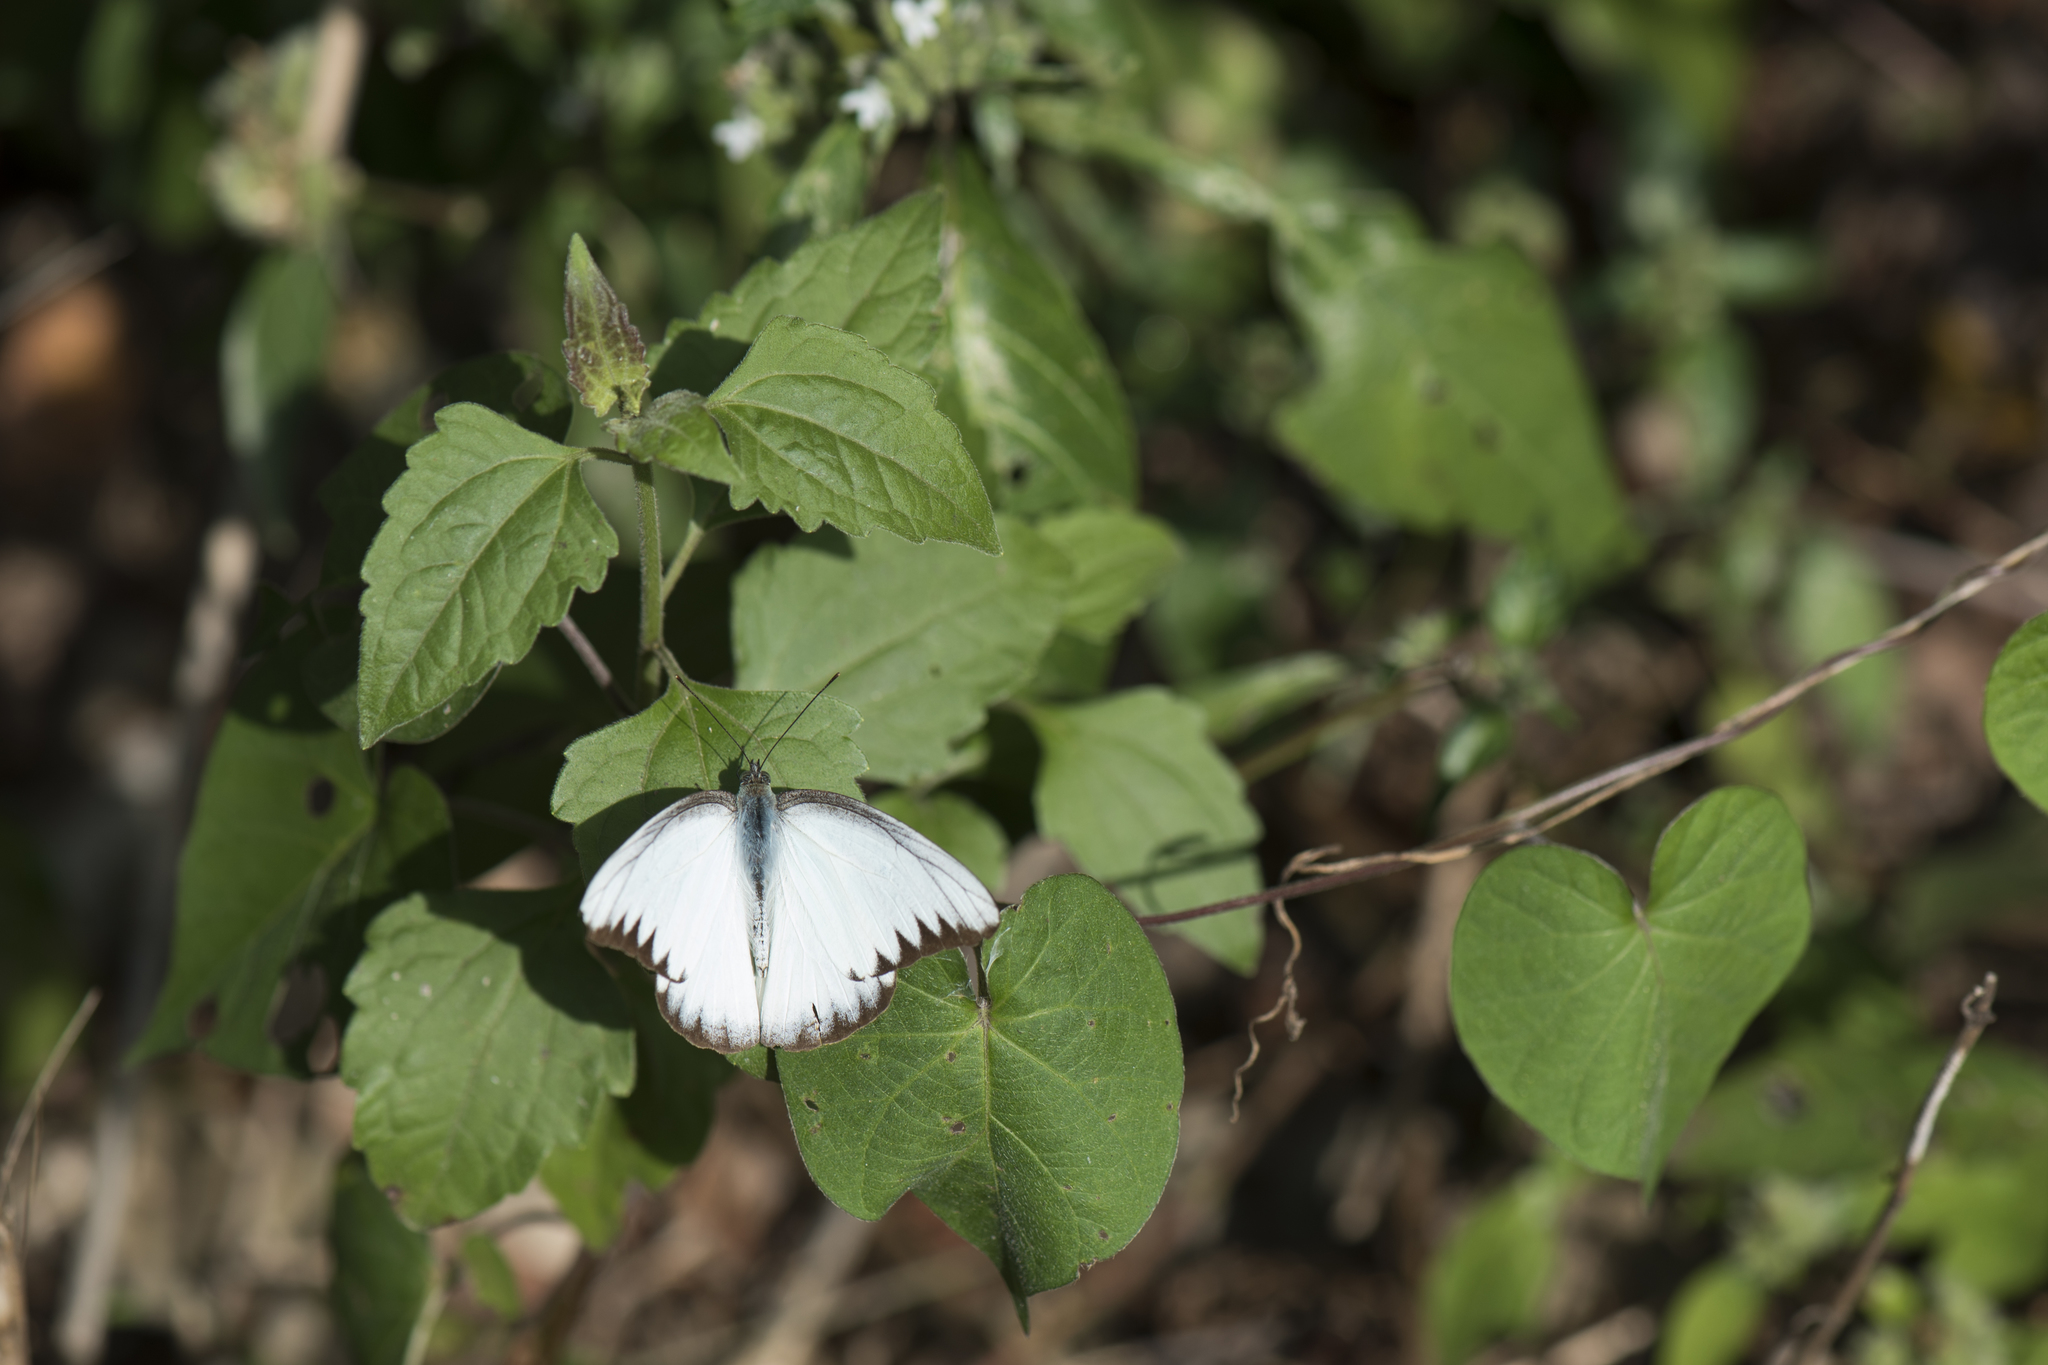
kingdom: Animalia
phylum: Arthropoda
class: Insecta
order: Lepidoptera
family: Pieridae
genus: Appias
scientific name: Appias lyncida
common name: Chocolate albatross
